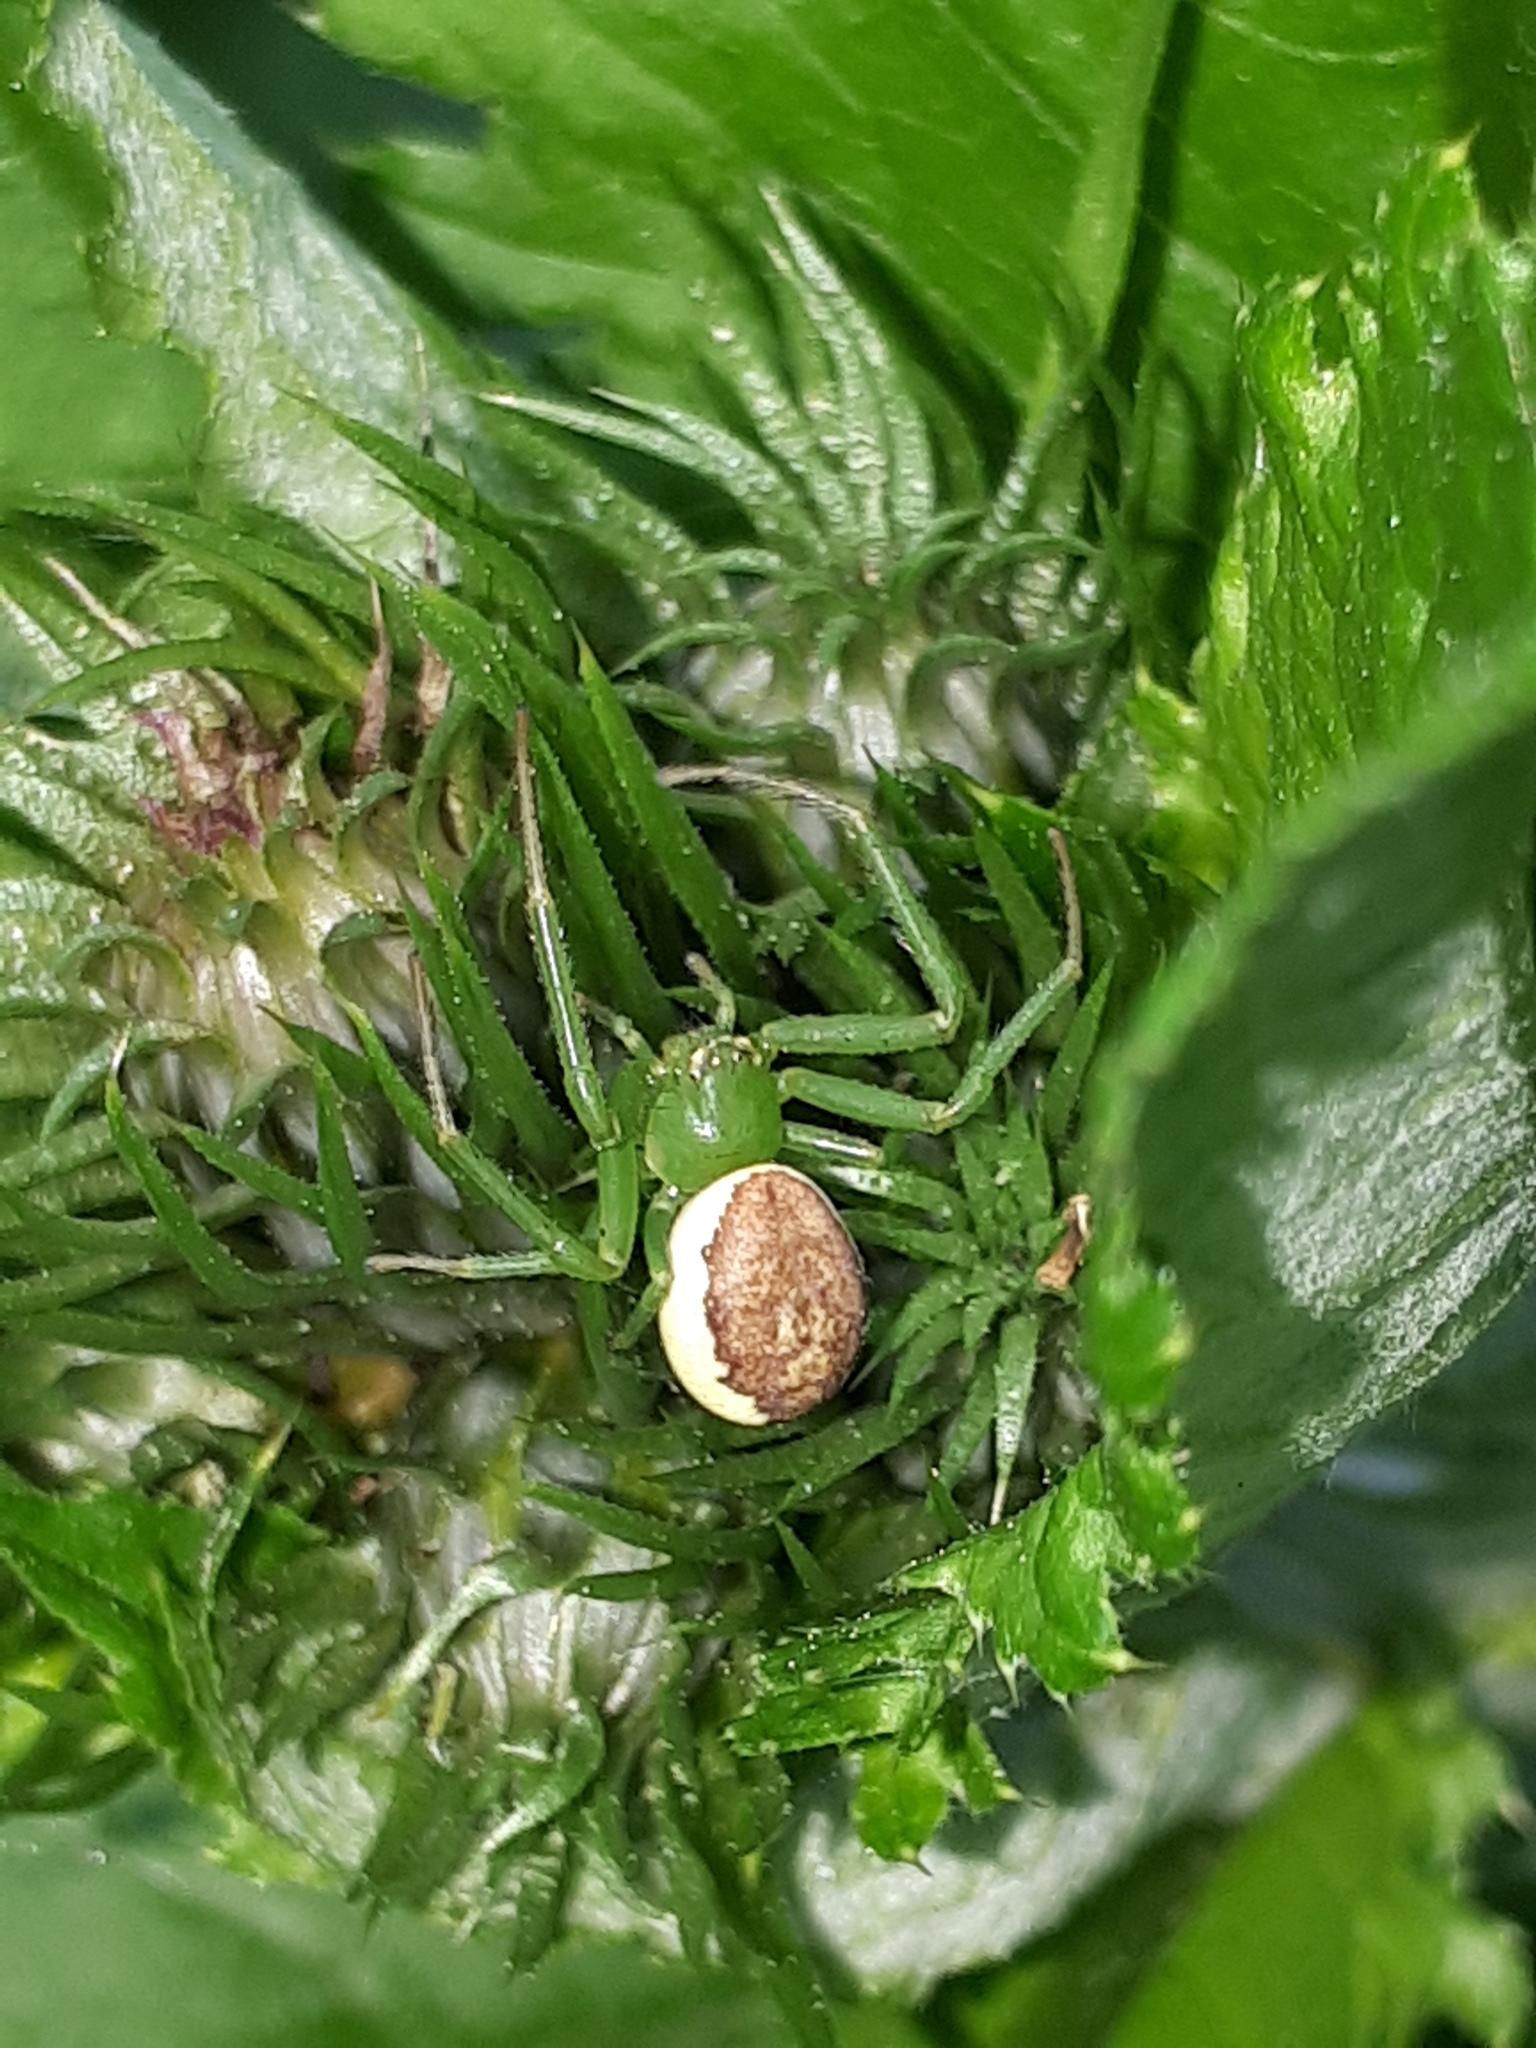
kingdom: Animalia
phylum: Arthropoda
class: Arachnida
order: Araneae
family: Thomisidae
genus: Diaea
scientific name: Diaea dorsata
